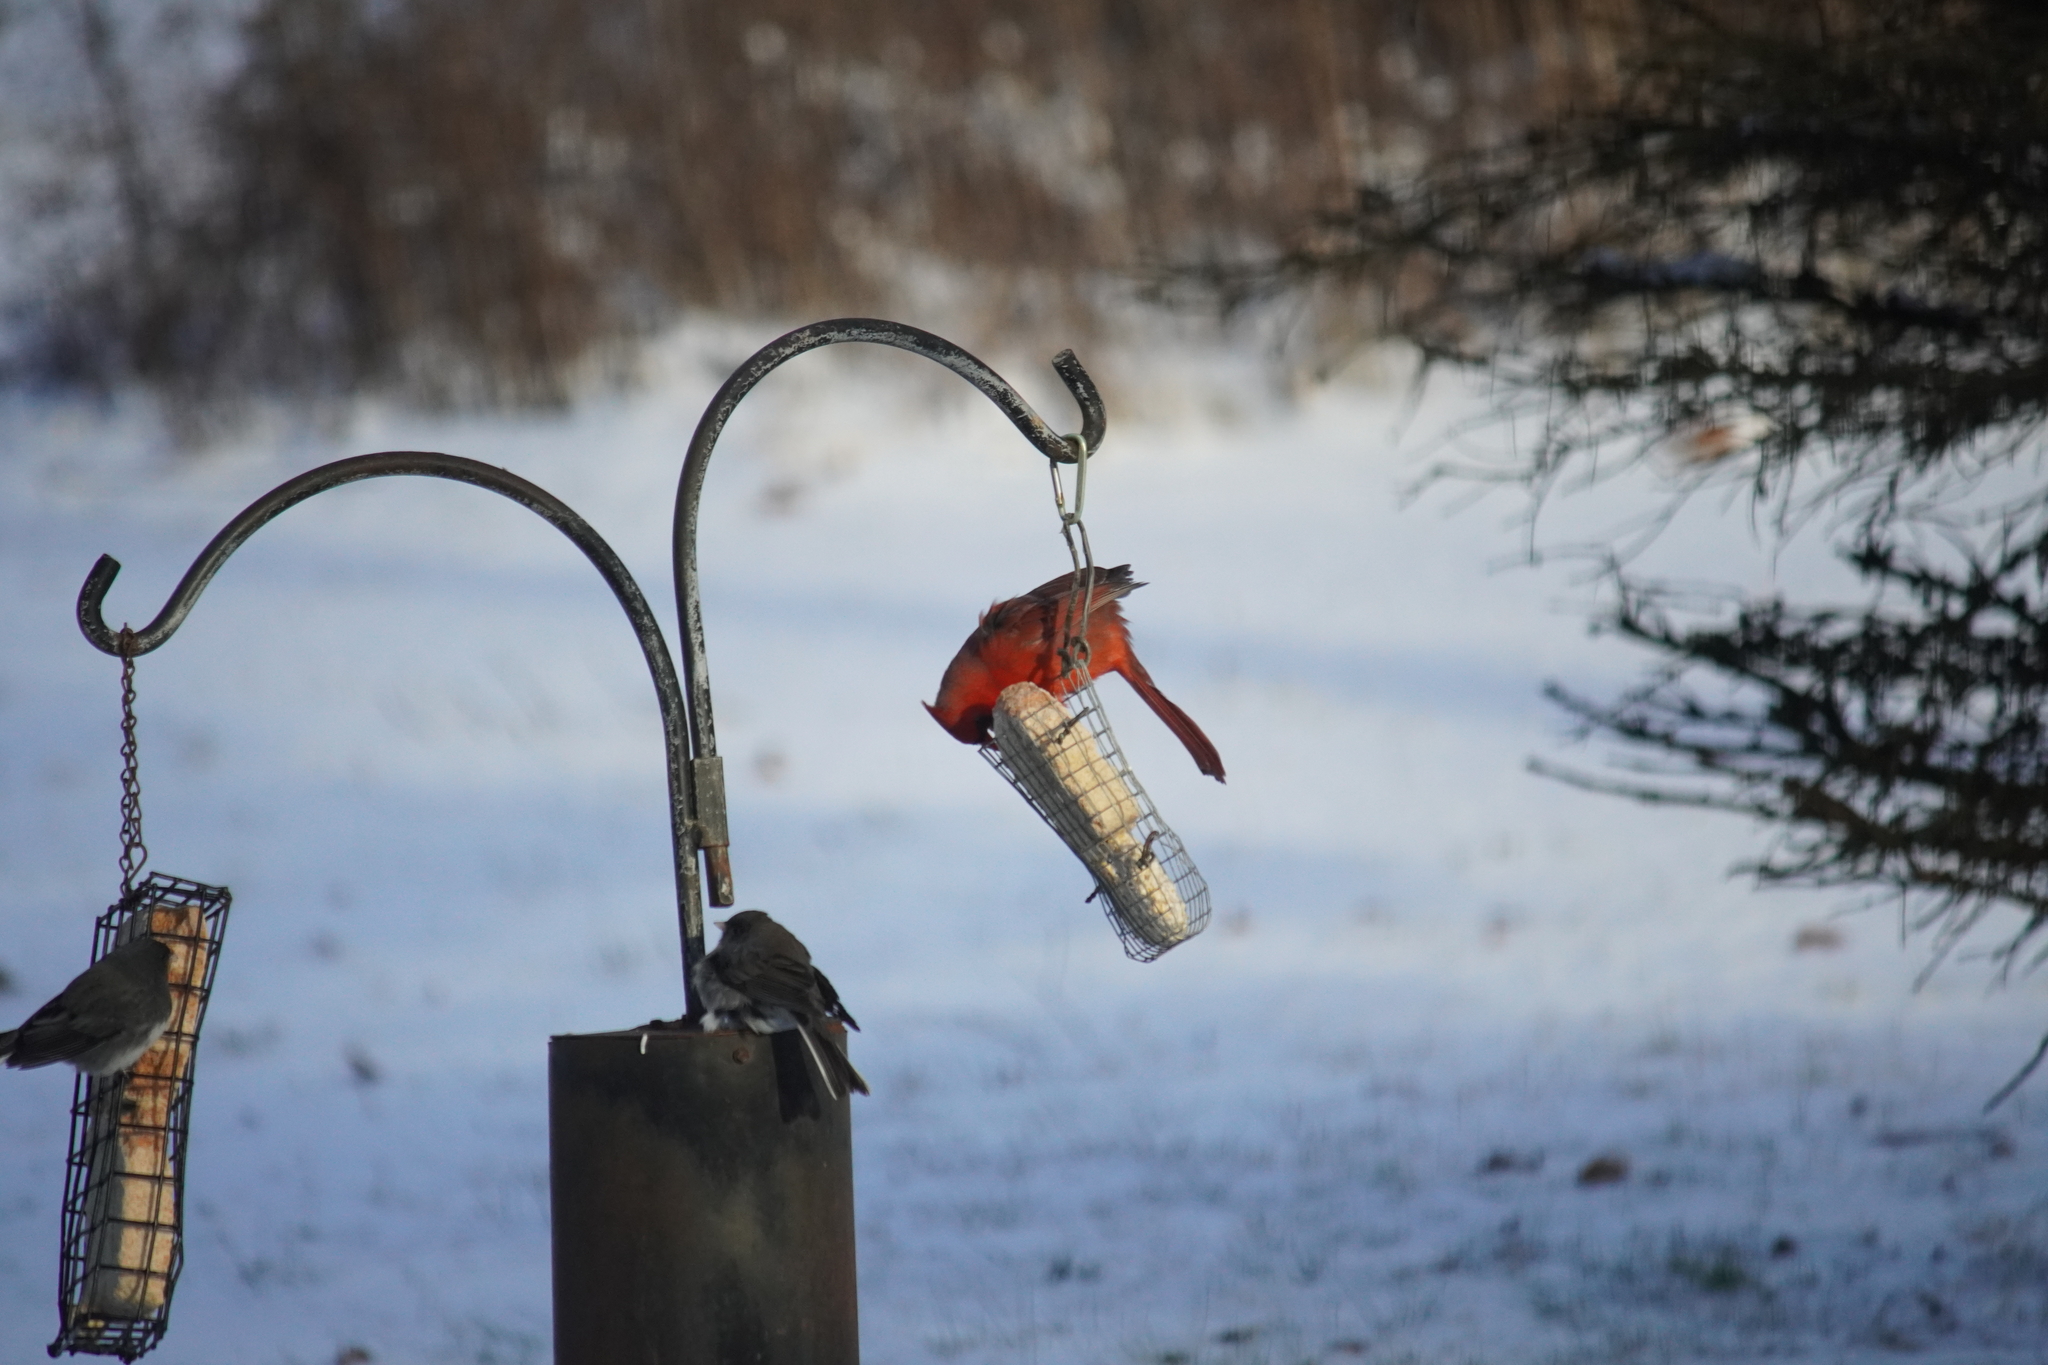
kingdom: Animalia
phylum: Chordata
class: Aves
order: Passeriformes
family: Cardinalidae
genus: Cardinalis
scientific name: Cardinalis cardinalis
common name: Northern cardinal
